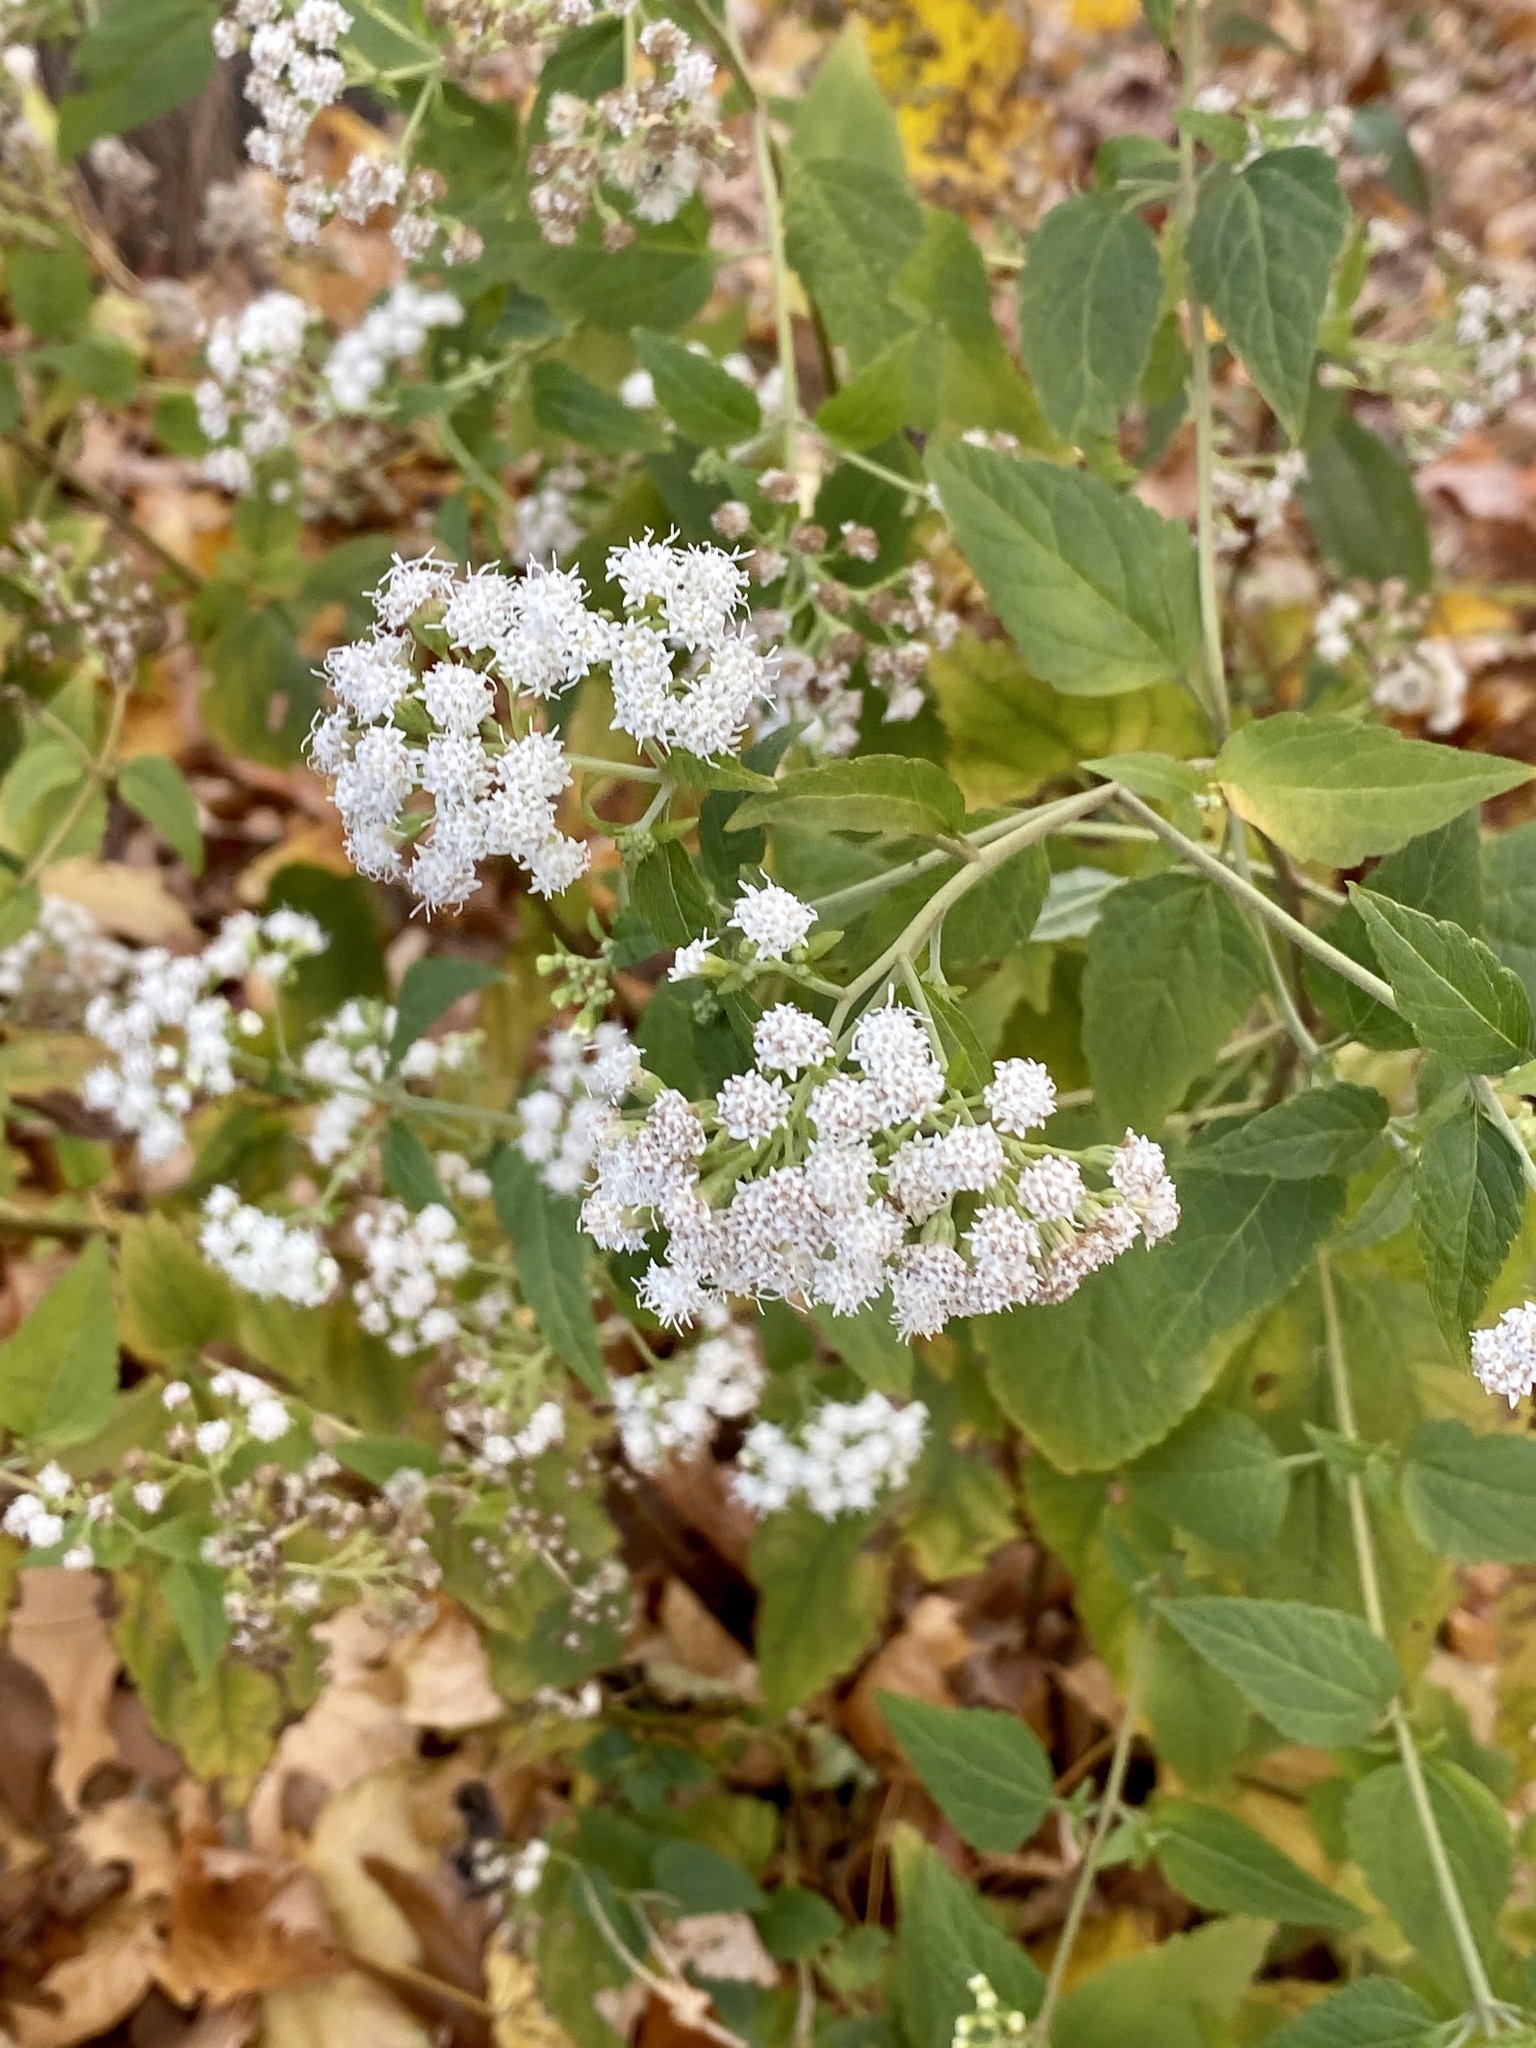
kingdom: Plantae
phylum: Tracheophyta
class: Magnoliopsida
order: Asterales
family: Asteraceae
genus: Ageratina
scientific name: Ageratina altissima
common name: White snakeroot
